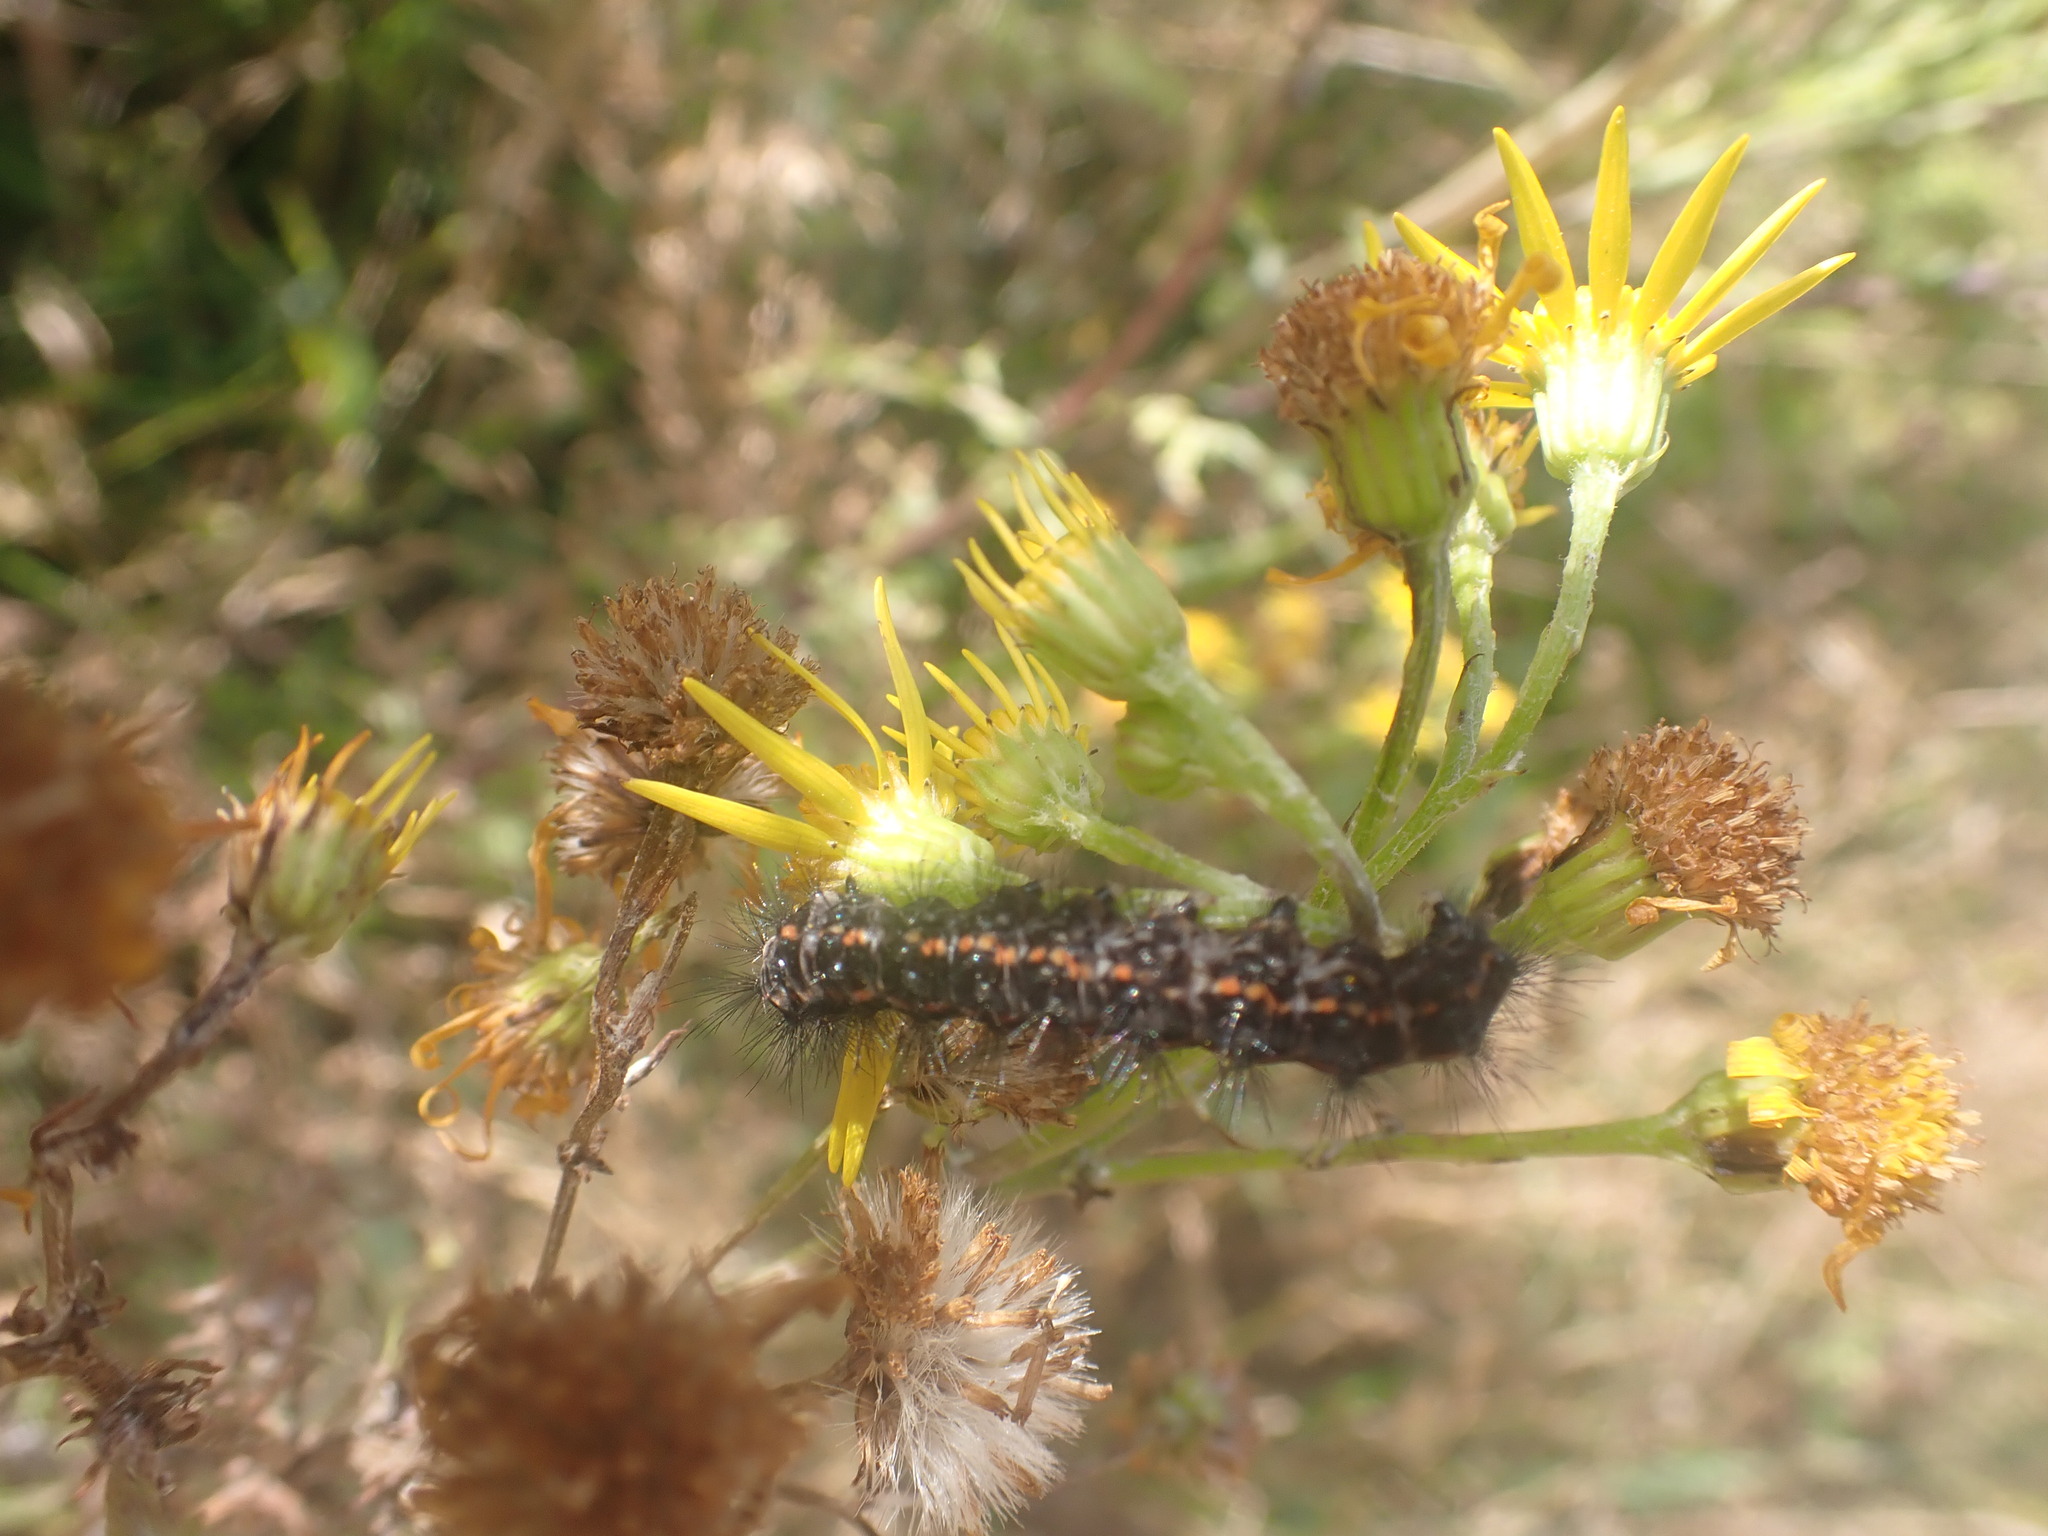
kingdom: Animalia
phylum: Arthropoda
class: Insecta
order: Lepidoptera
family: Erebidae
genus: Nyctemera
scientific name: Nyctemera annulatum
